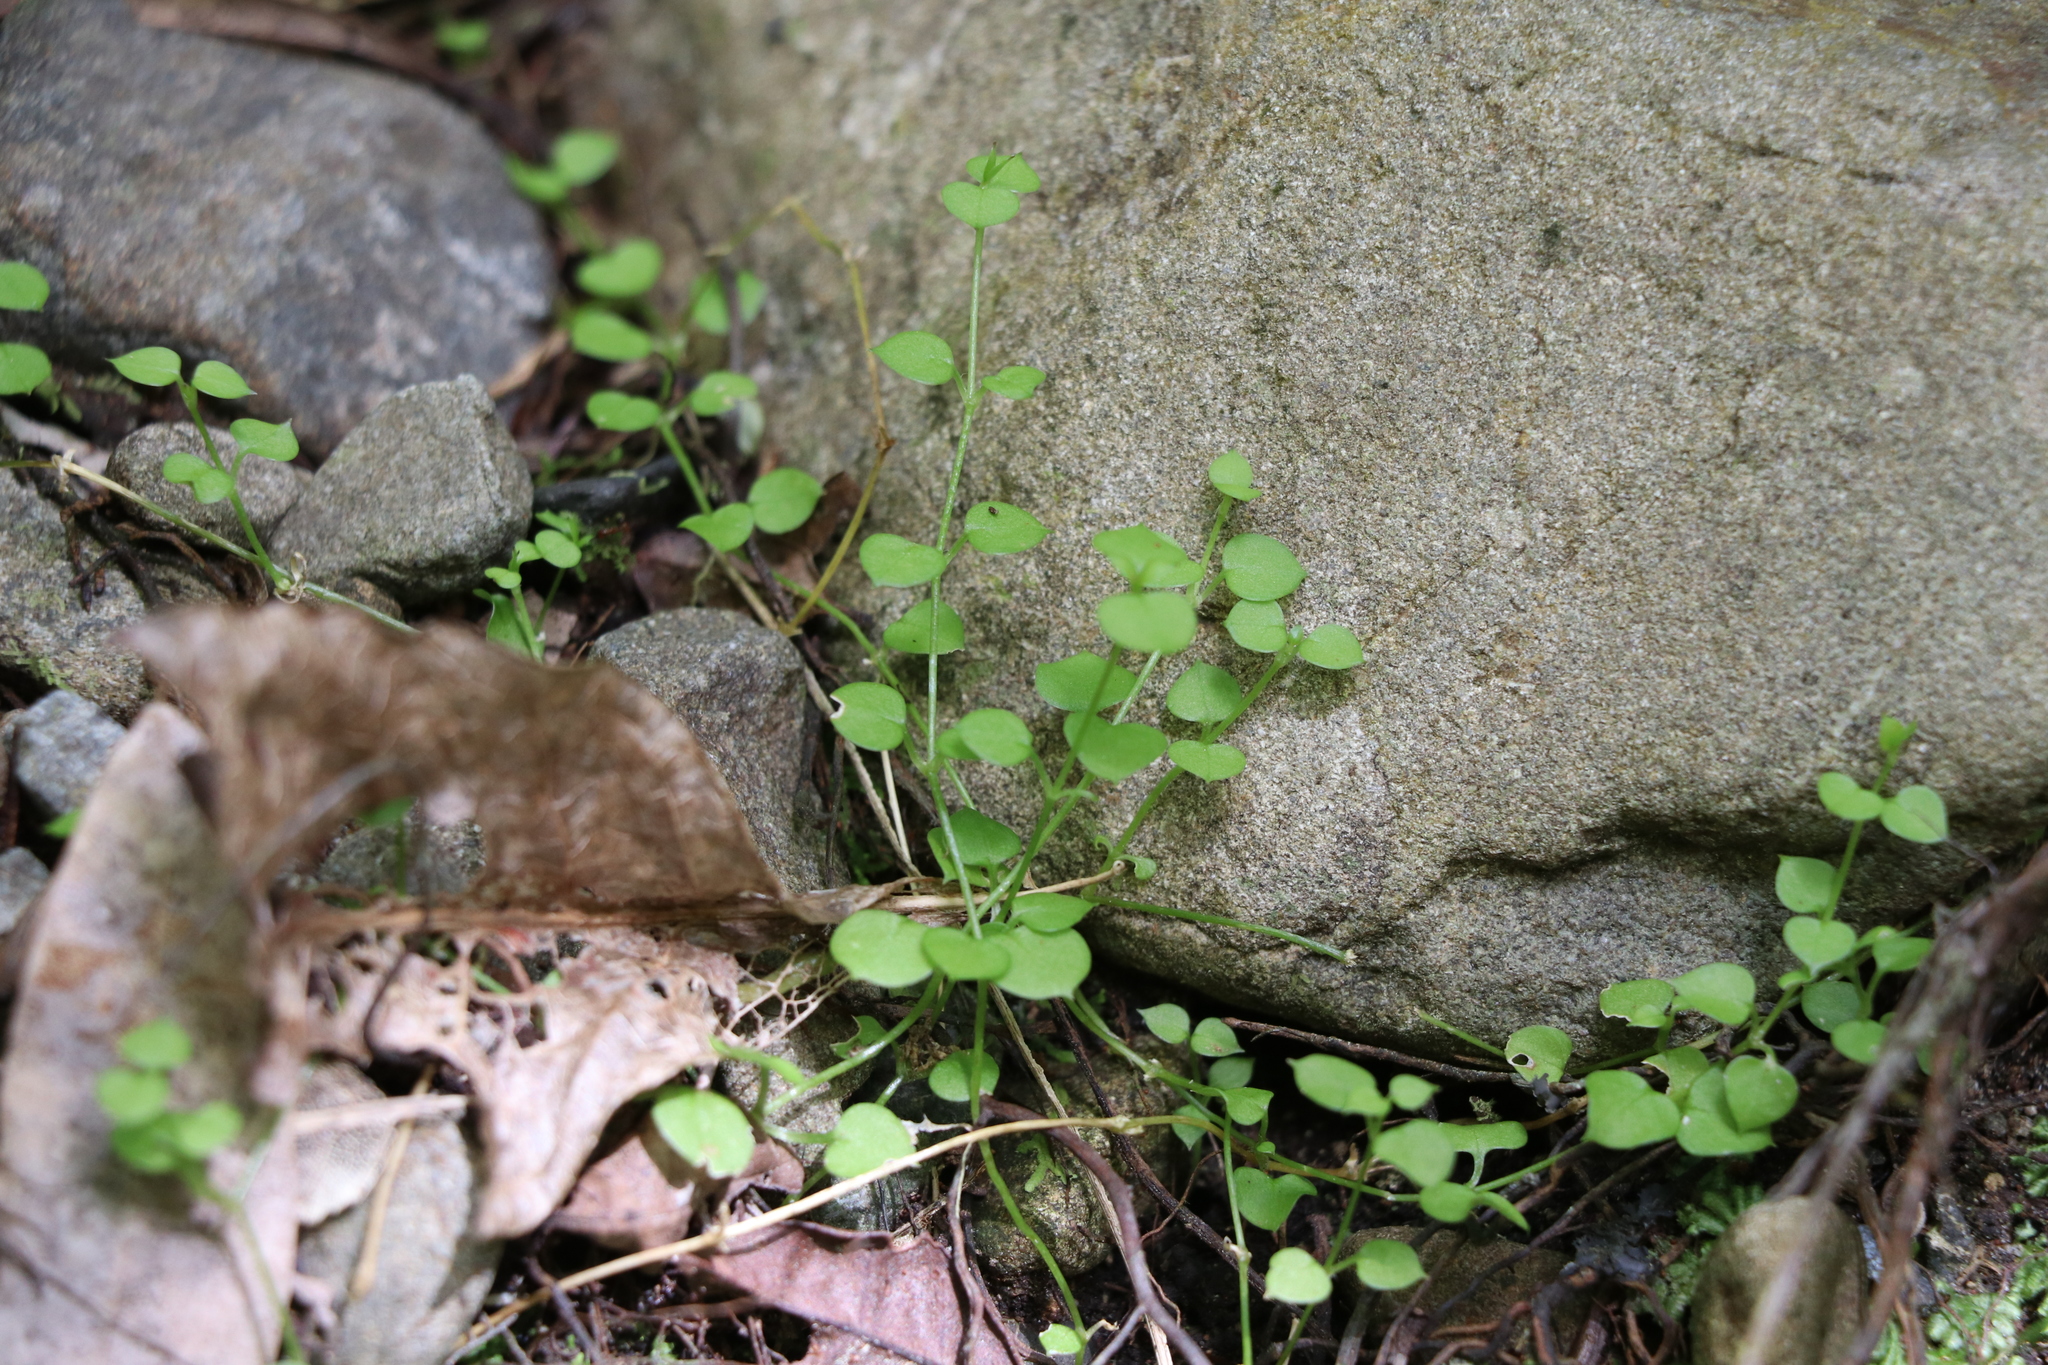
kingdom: Plantae
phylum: Tracheophyta
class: Magnoliopsida
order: Caryophyllales
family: Caryophyllaceae
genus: Stellaria
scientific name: Stellaria parviflora
